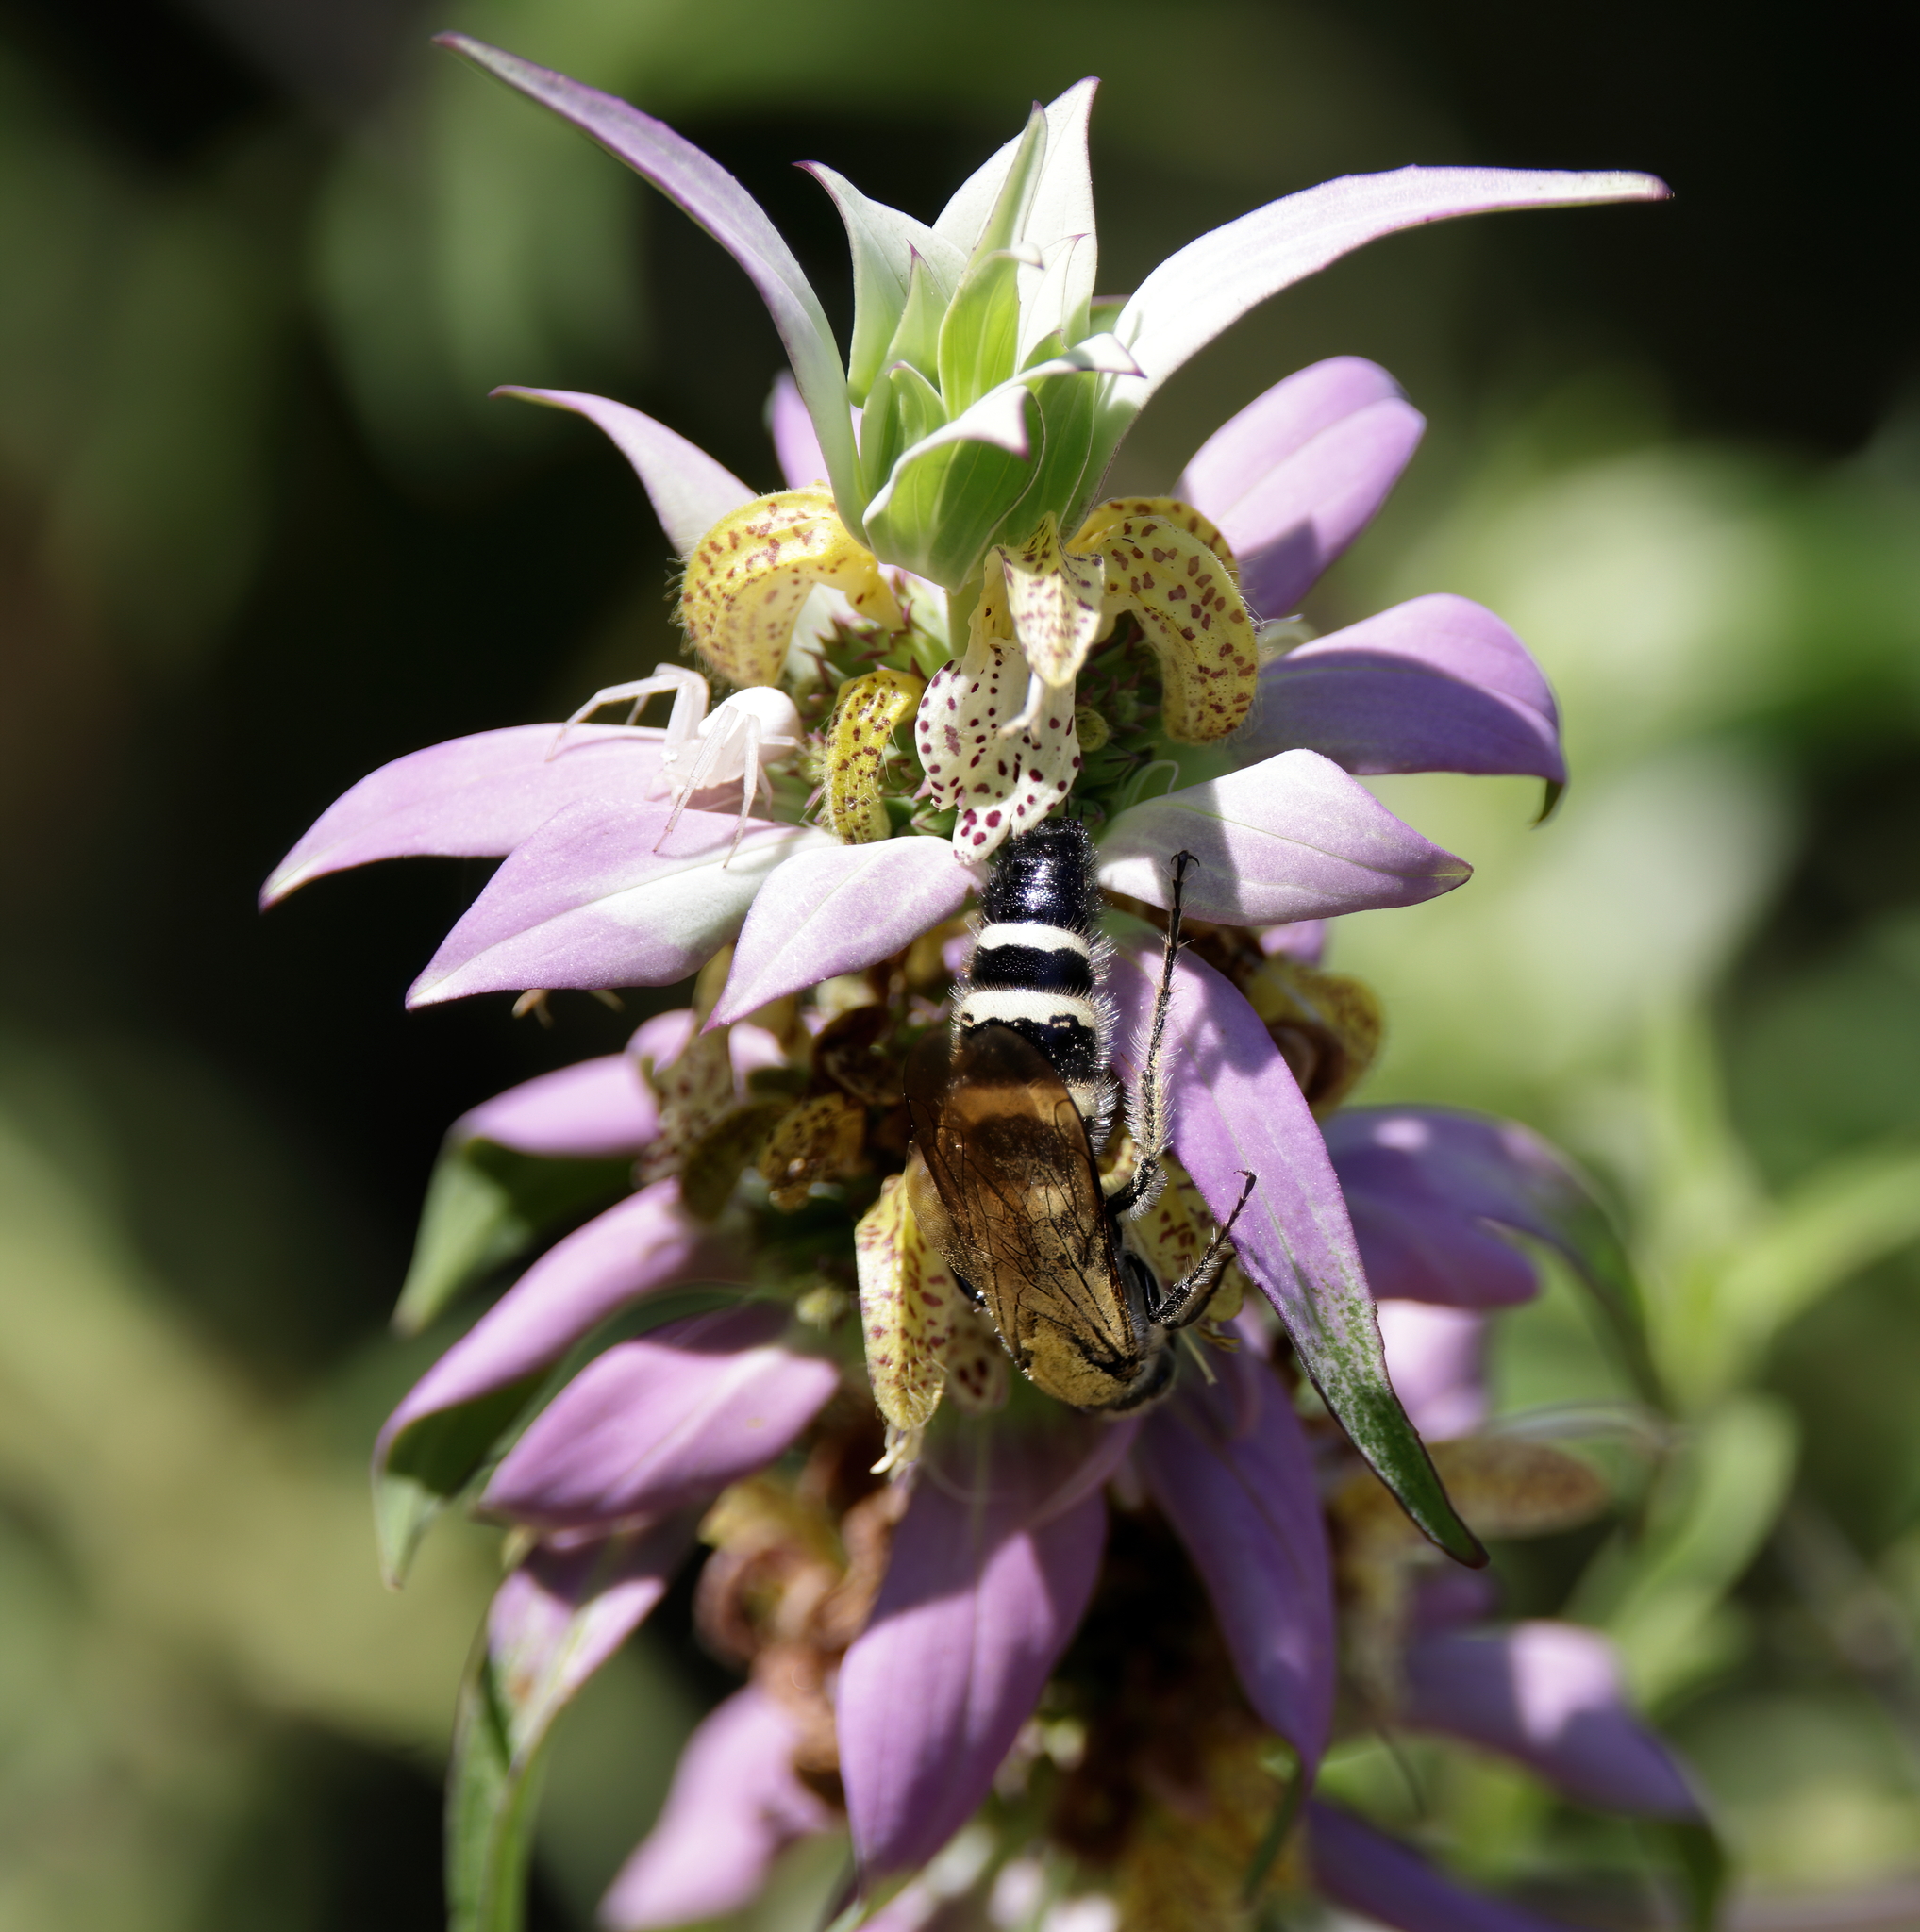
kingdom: Animalia
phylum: Arthropoda
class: Insecta
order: Hymenoptera
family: Scoliidae
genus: Dielis
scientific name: Dielis
